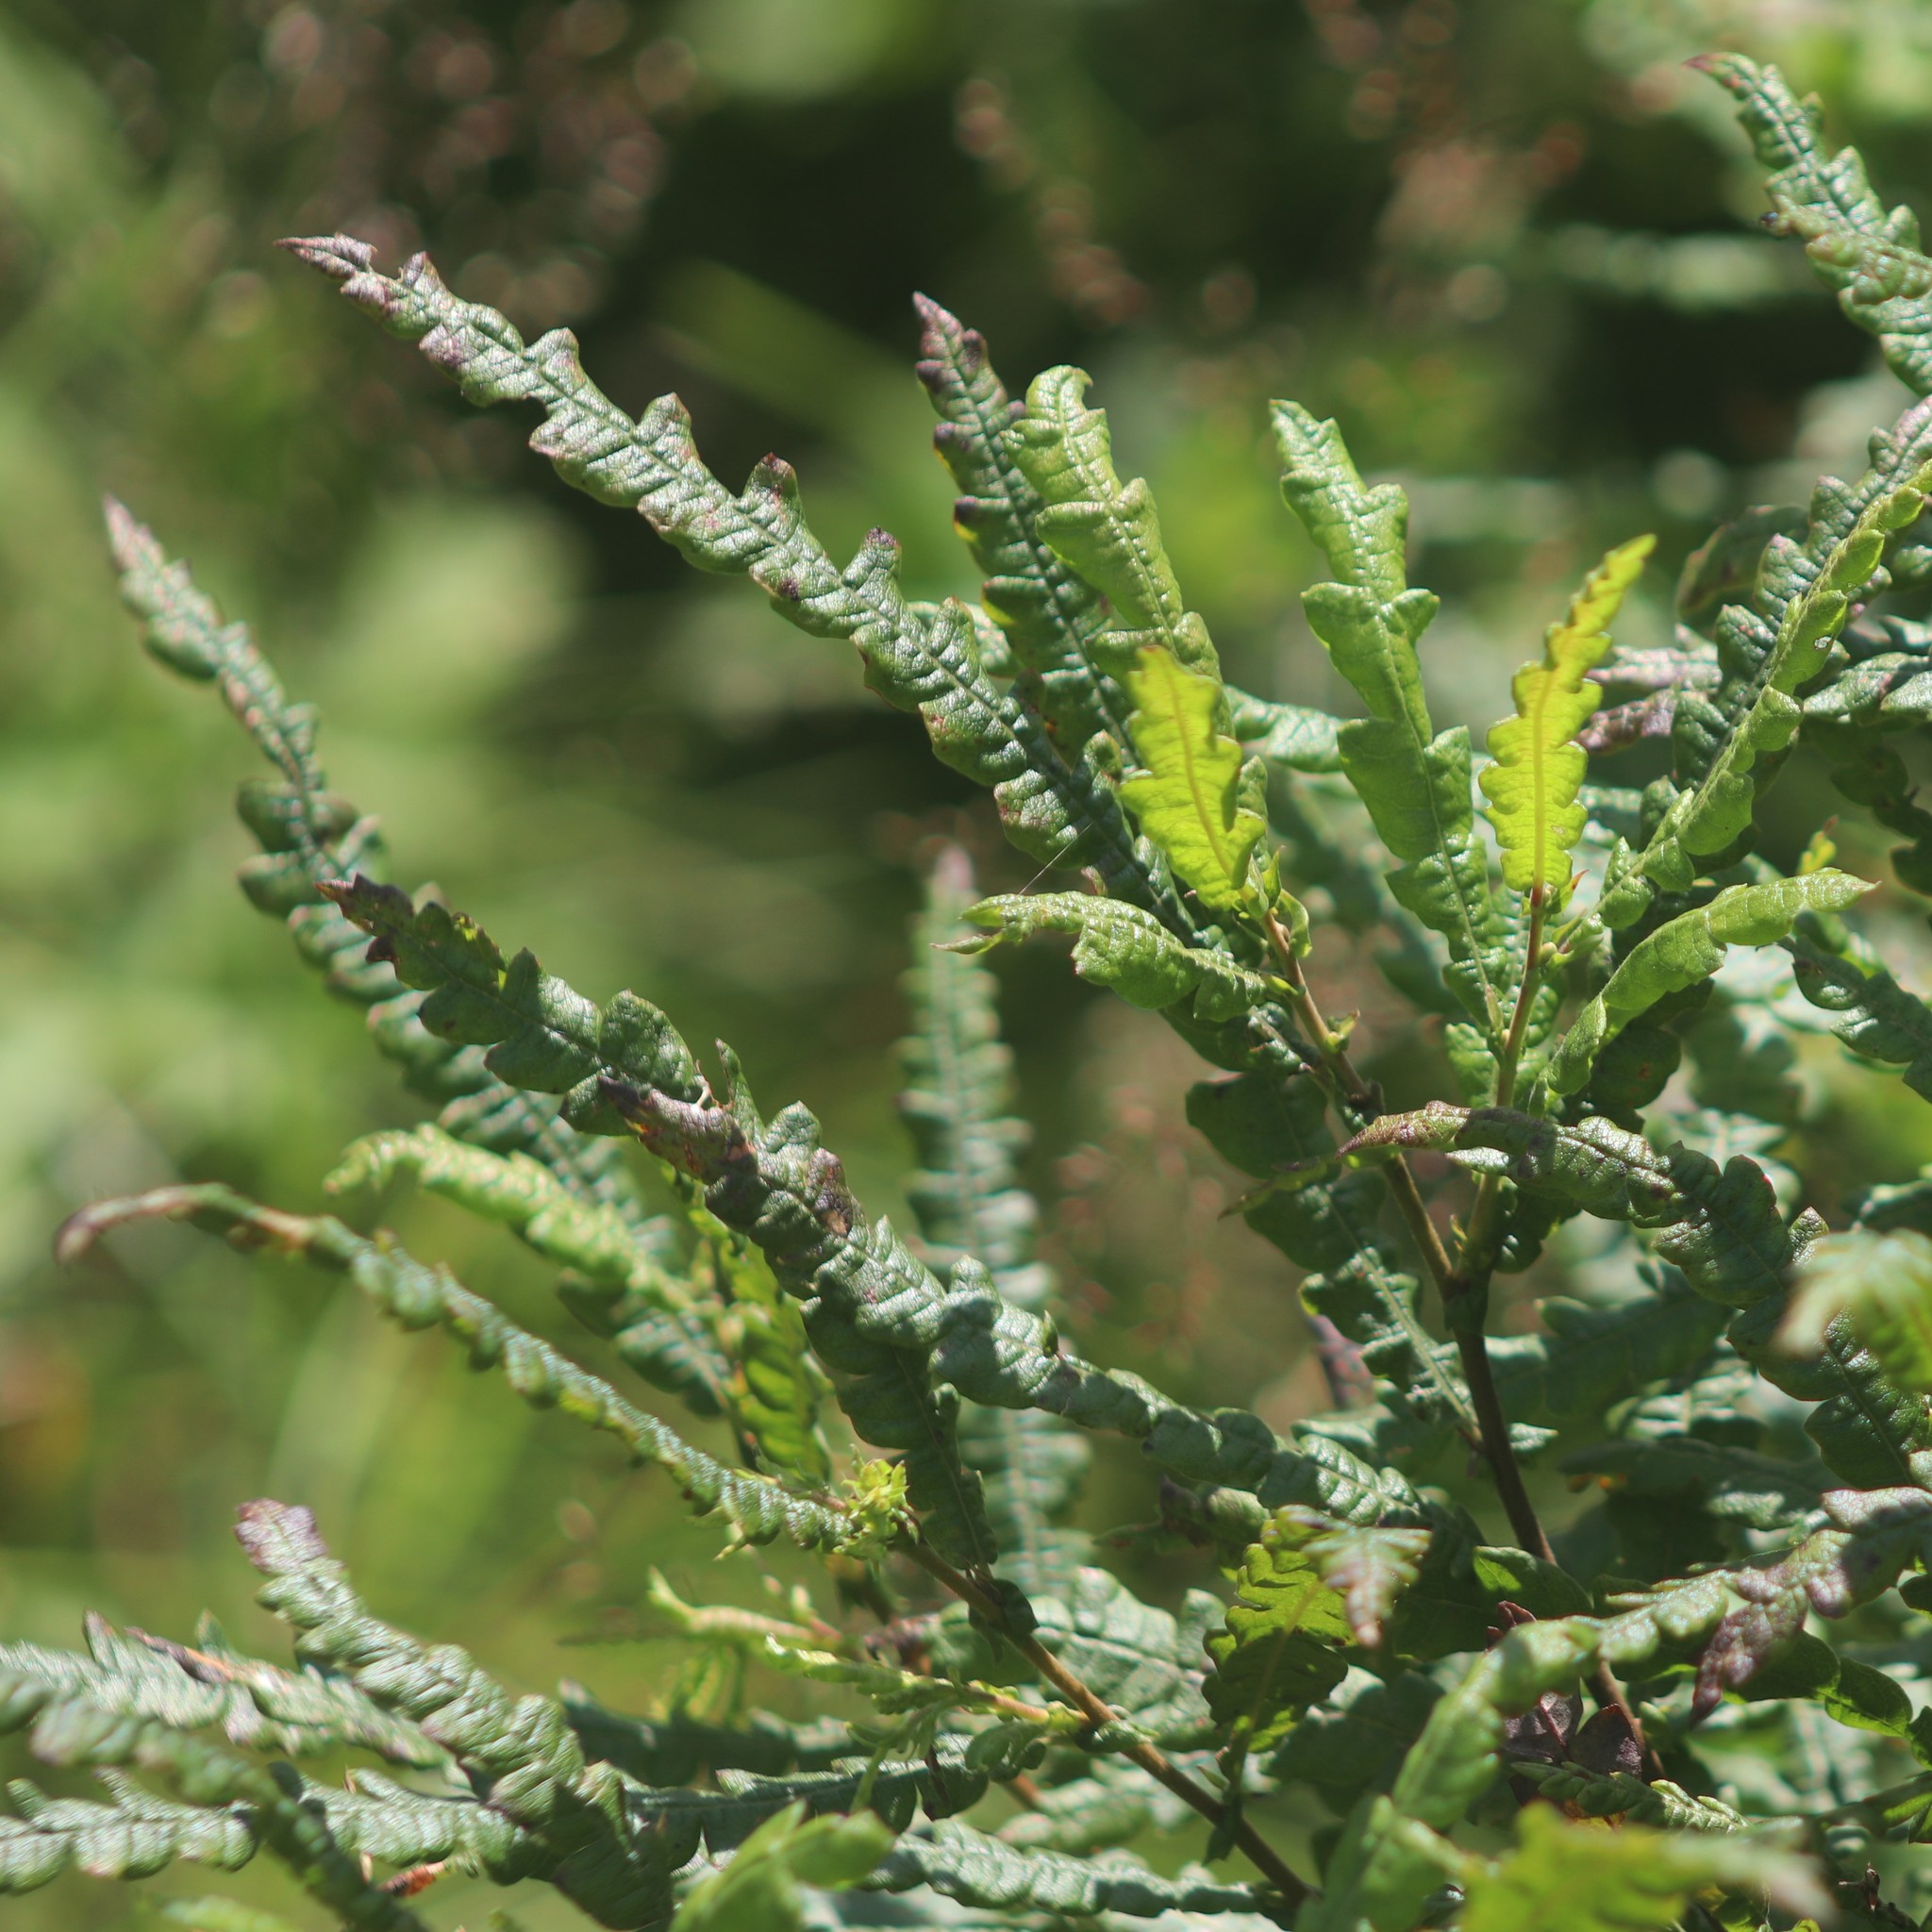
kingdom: Plantae
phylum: Tracheophyta
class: Magnoliopsida
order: Fagales
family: Myricaceae
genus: Comptonia
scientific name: Comptonia peregrina
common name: Sweet-fern
